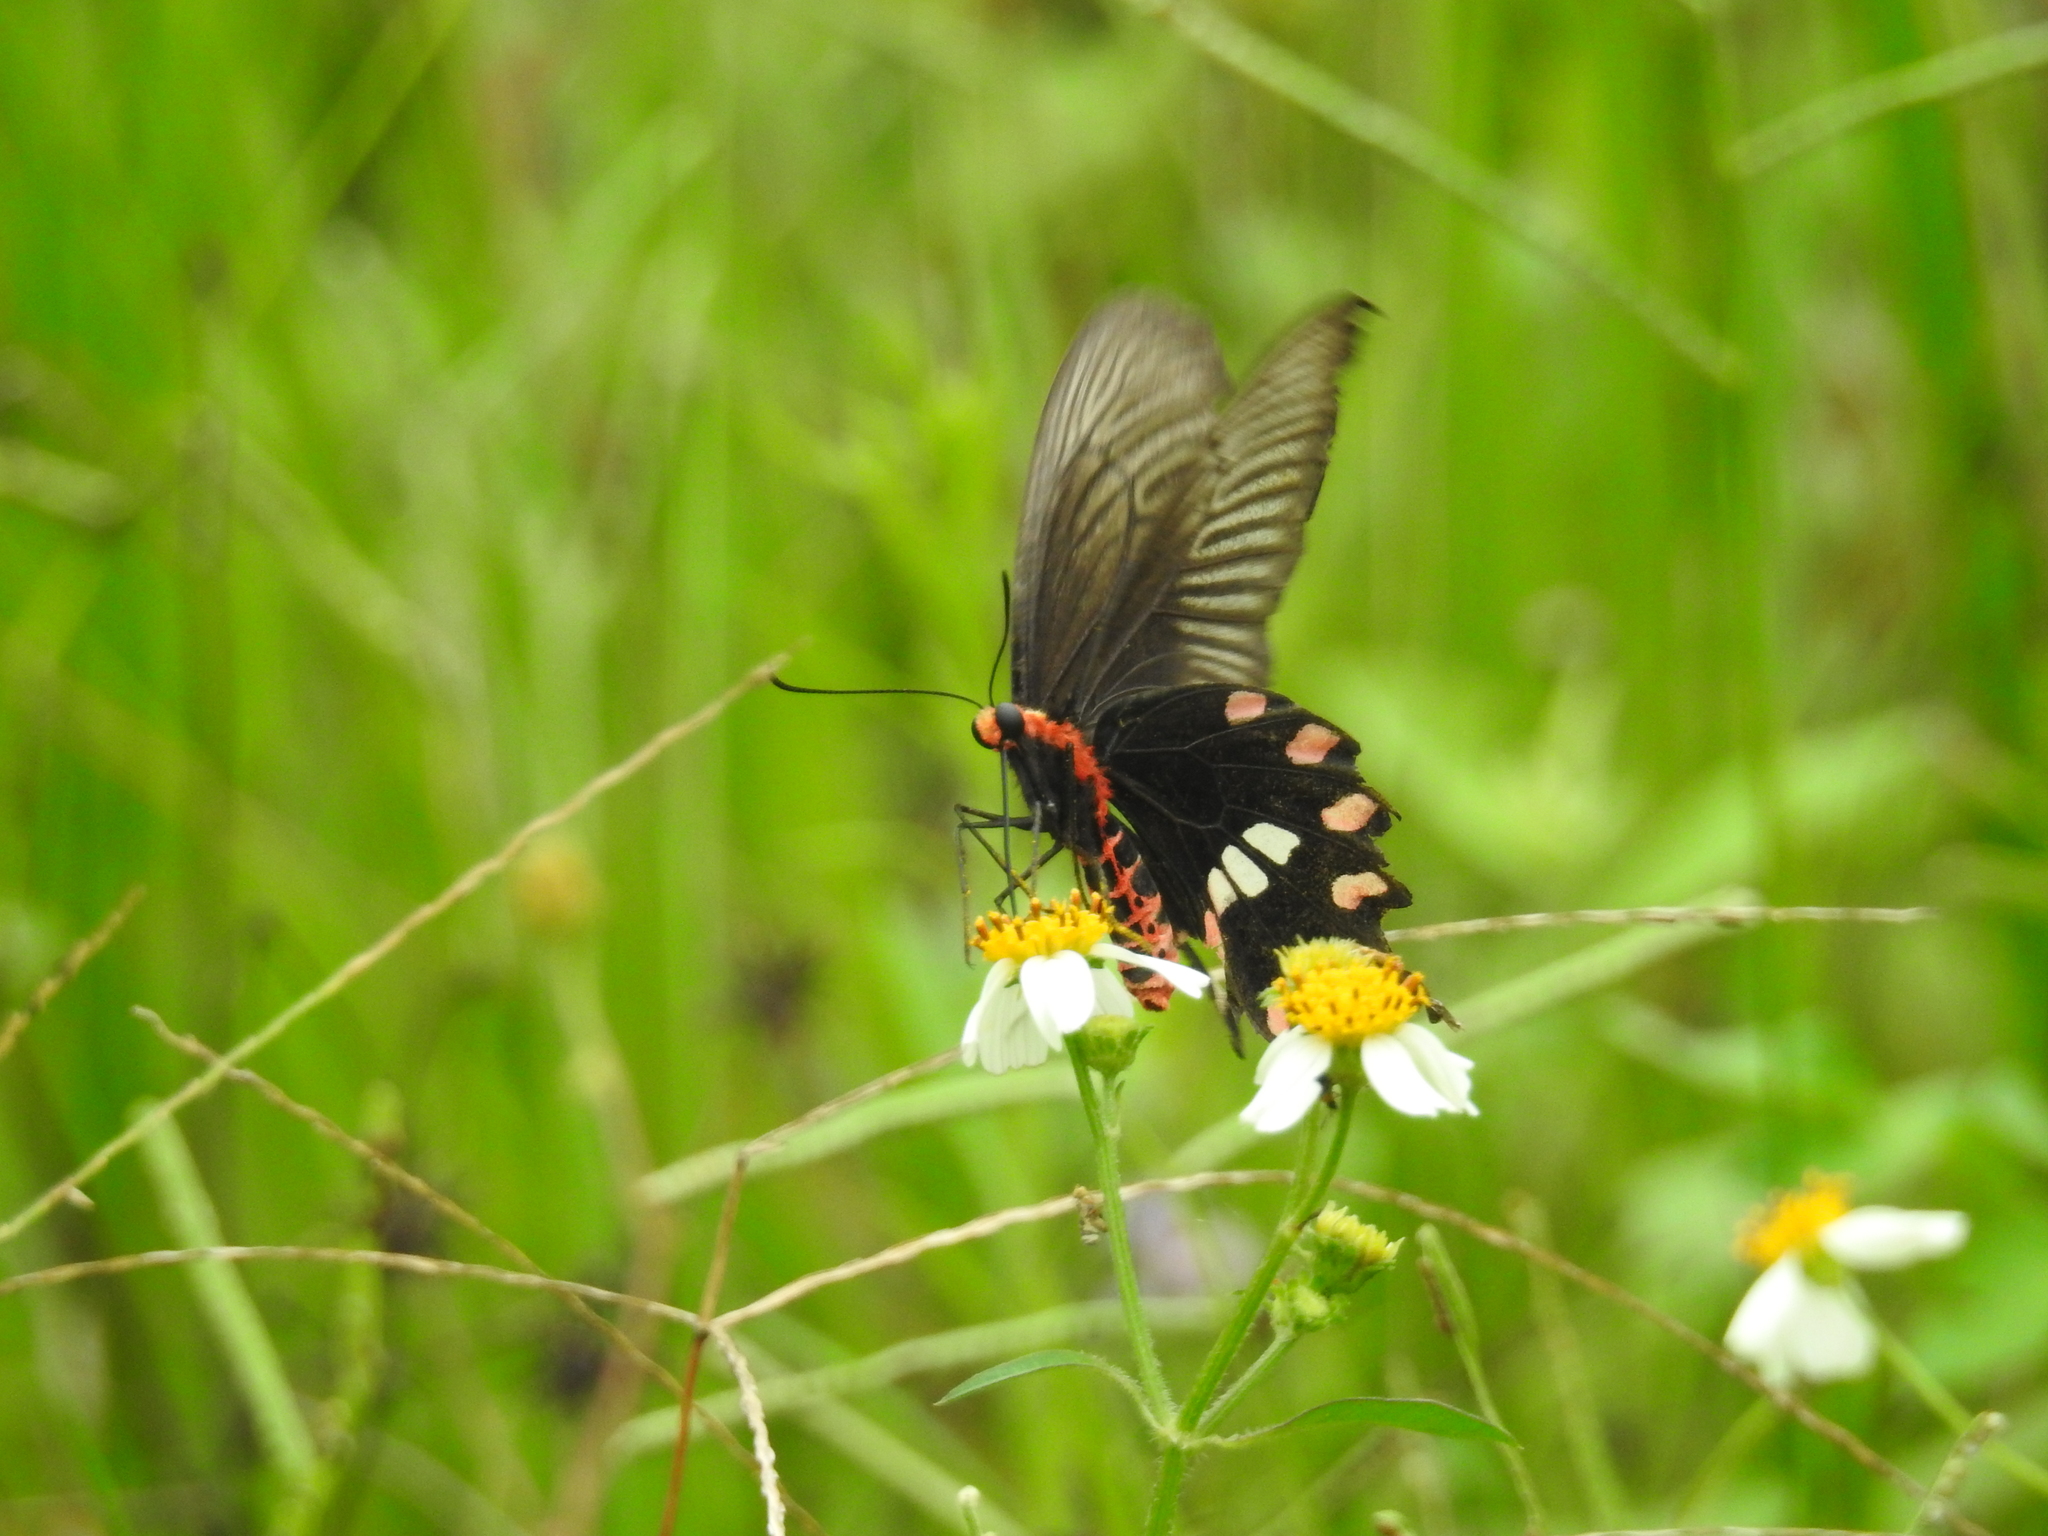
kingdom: Animalia
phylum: Arthropoda
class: Insecta
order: Lepidoptera
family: Papilionidae
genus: Pachliopta
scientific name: Pachliopta aristolochiae
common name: Common rose
